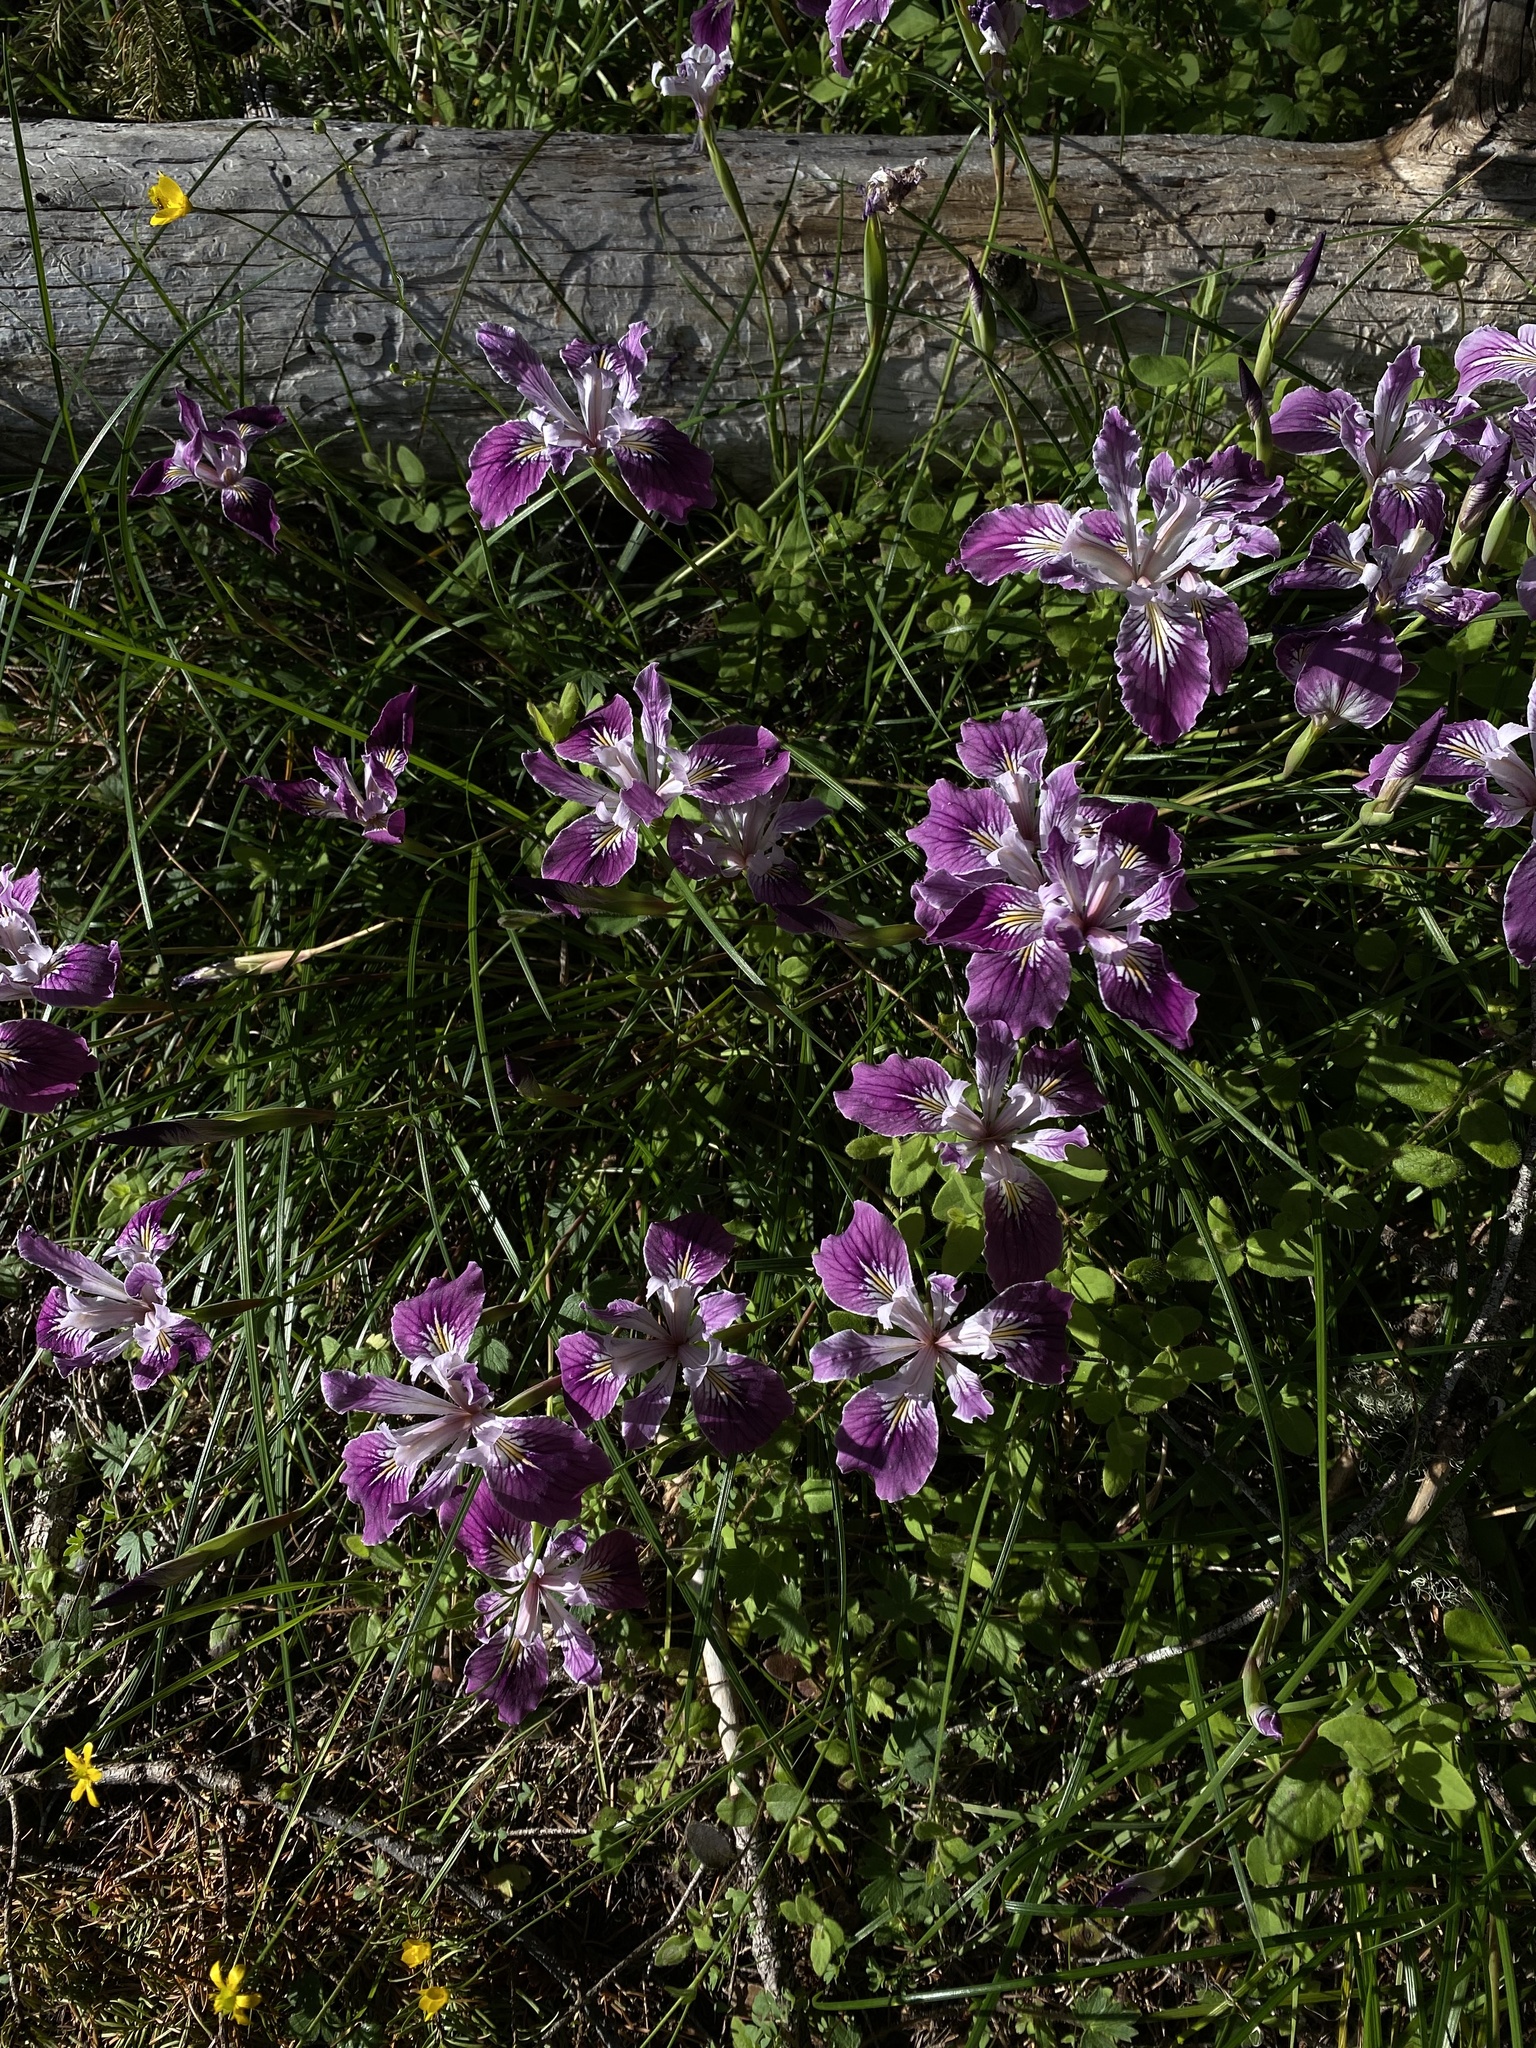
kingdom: Plantae
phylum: Tracheophyta
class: Liliopsida
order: Asparagales
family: Iridaceae
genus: Iris
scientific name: Iris thompsonii
